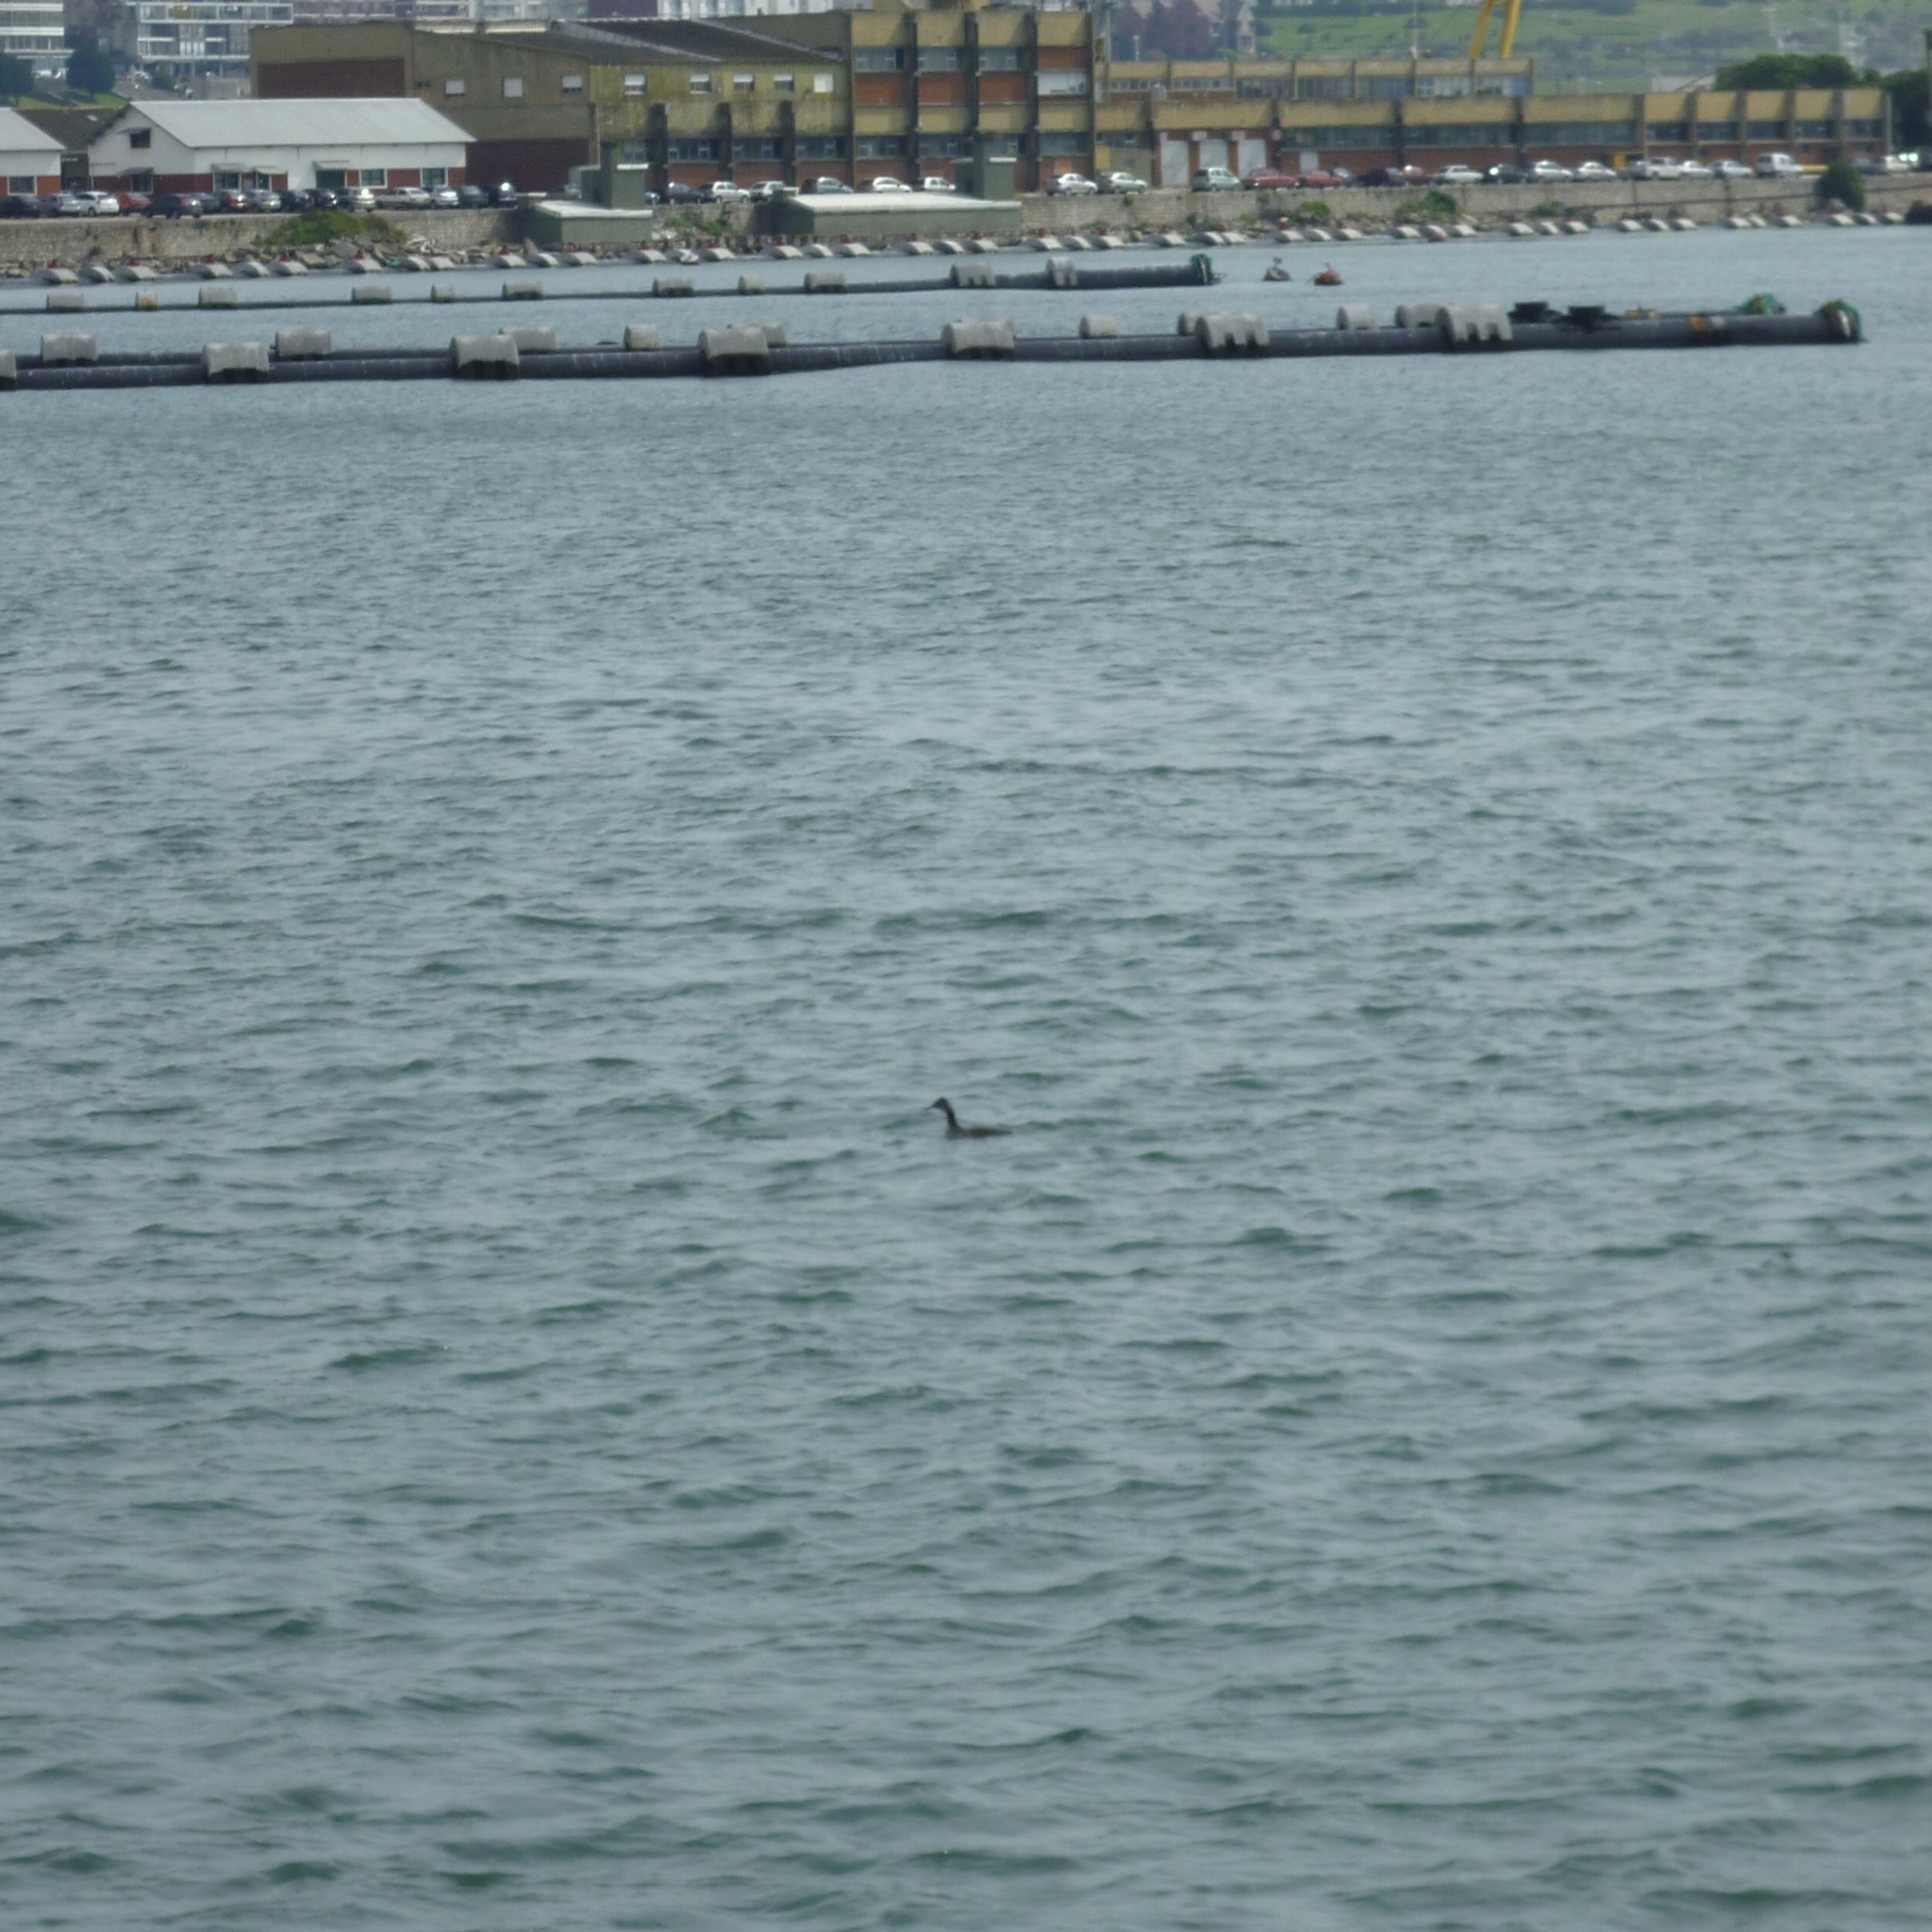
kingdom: Animalia
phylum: Chordata
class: Aves
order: Podicipediformes
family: Podicipedidae
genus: Podiceps
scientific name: Podiceps major
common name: Great grebe
